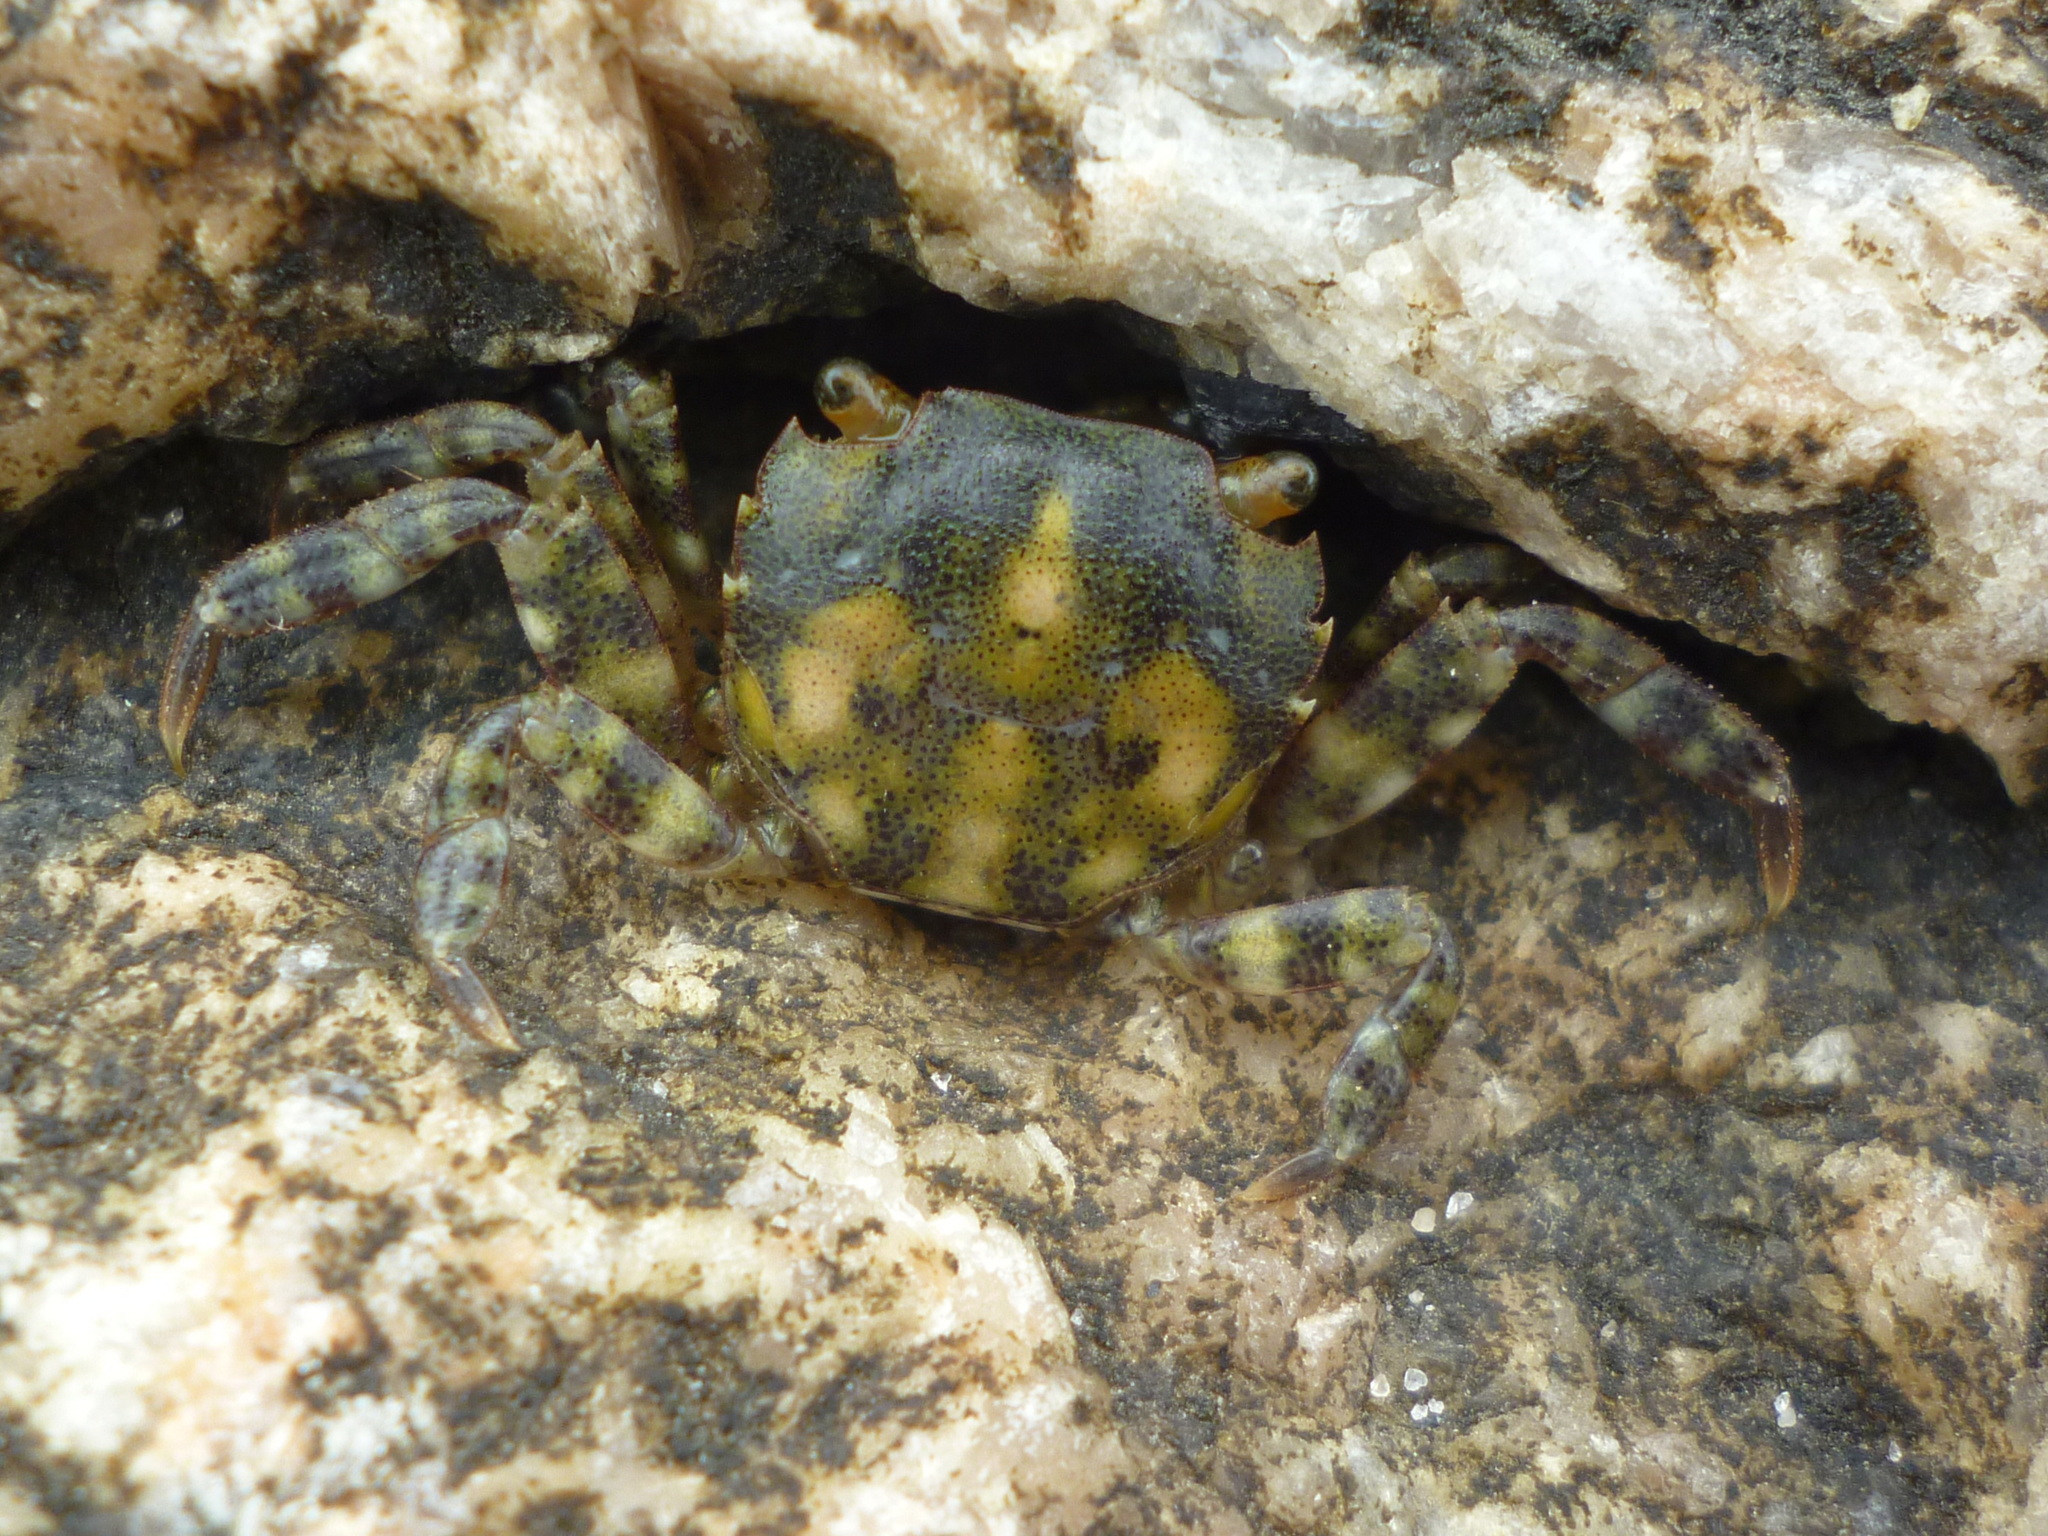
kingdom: Animalia
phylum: Arthropoda
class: Malacostraca
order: Decapoda
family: Varunidae
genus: Hemigrapsus
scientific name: Hemigrapsus sanguineus
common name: Asian shore crab
